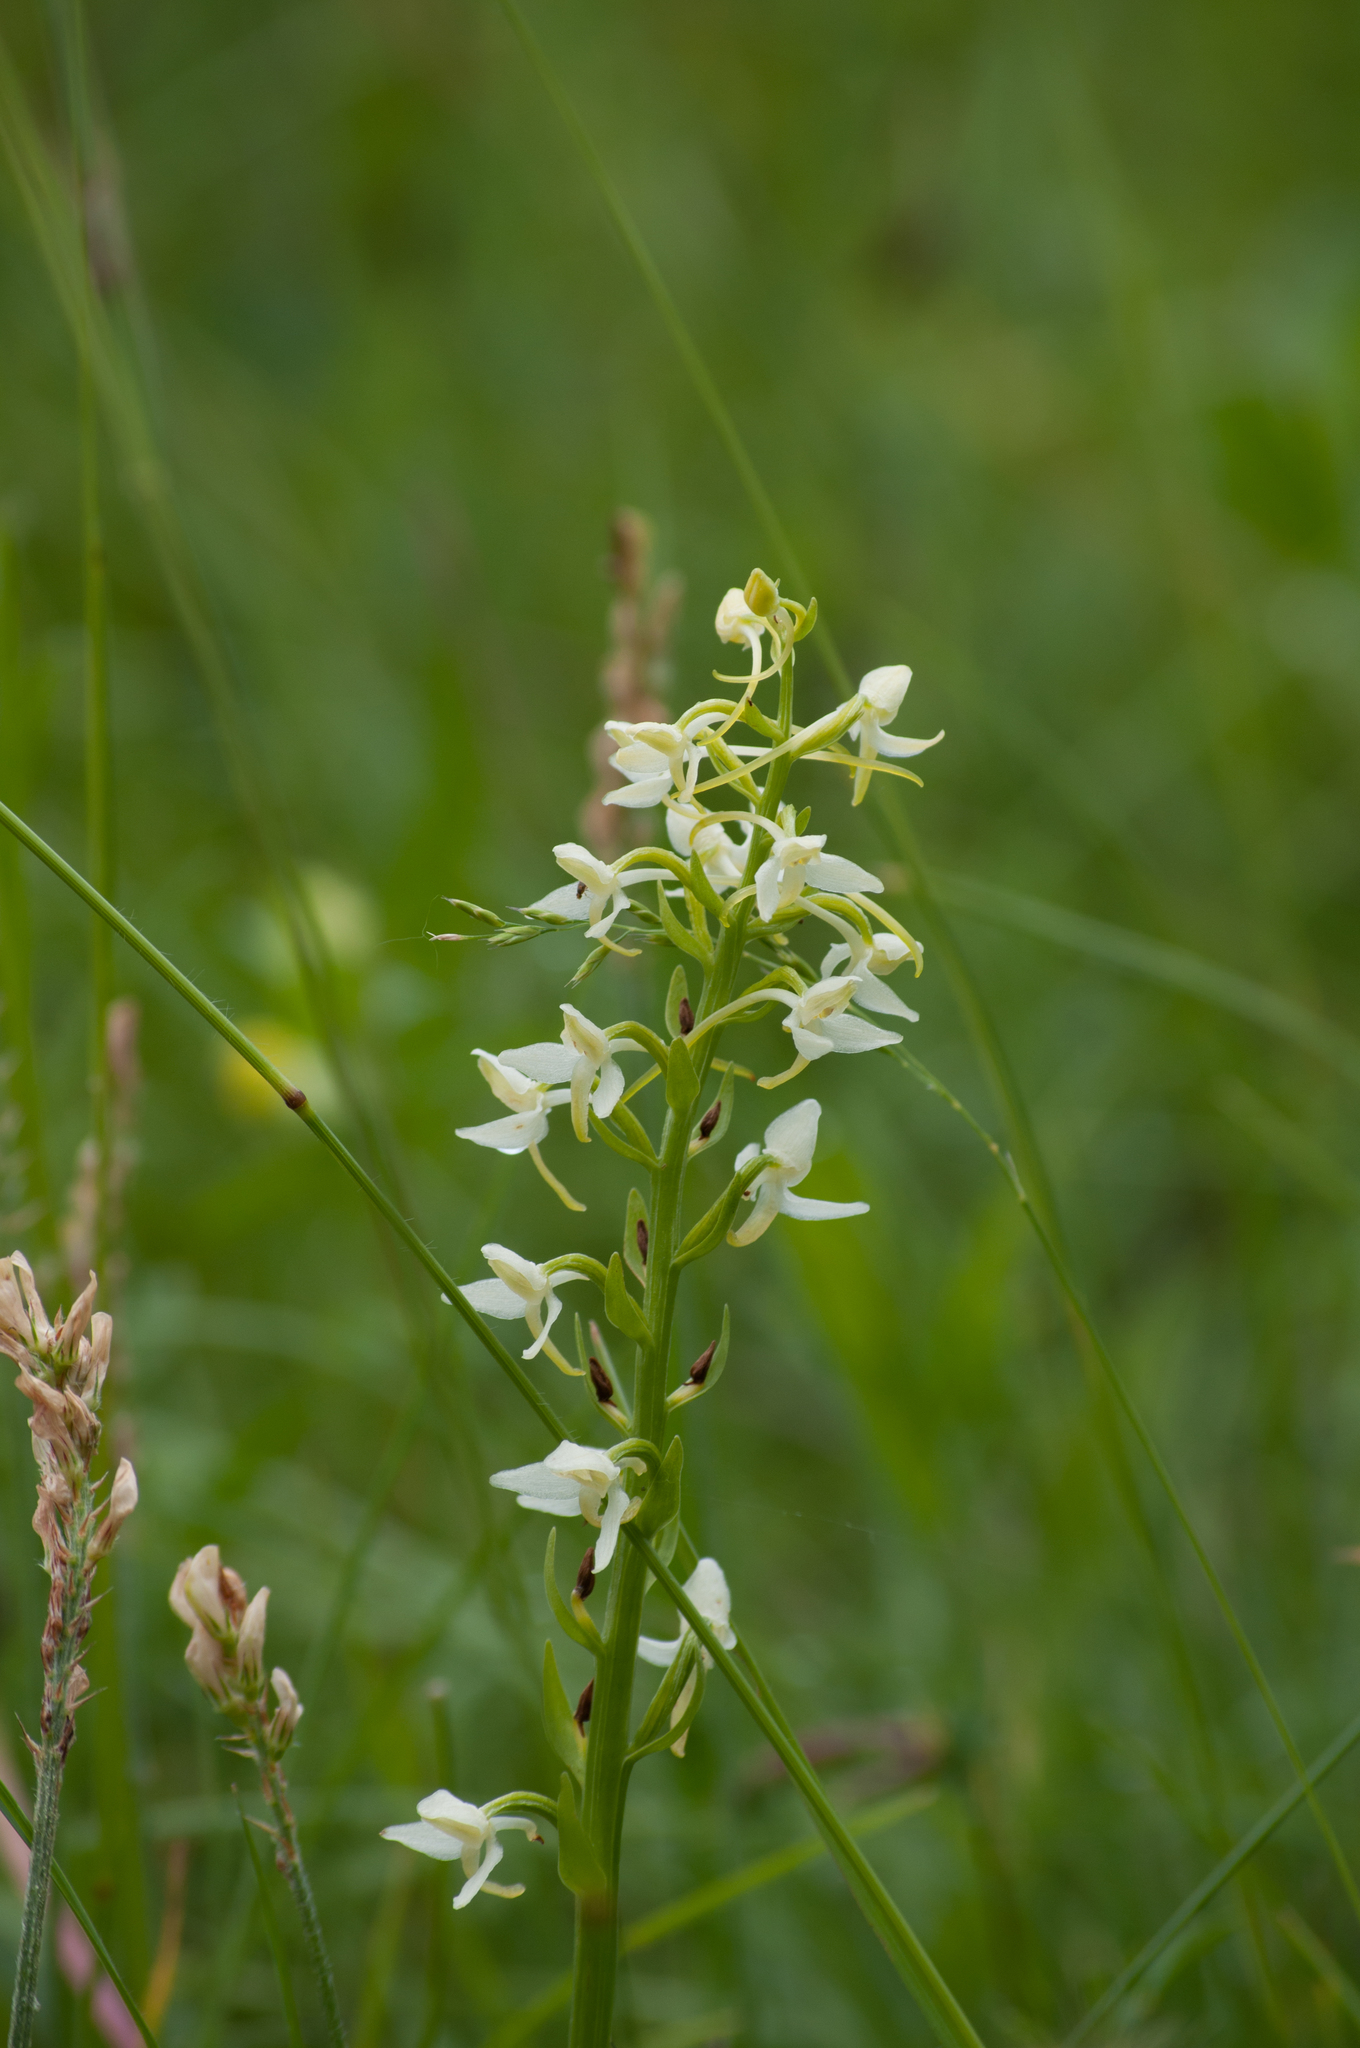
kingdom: Plantae
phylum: Tracheophyta
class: Liliopsida
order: Asparagales
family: Orchidaceae
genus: Platanthera
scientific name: Platanthera bifolia
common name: Lesser butterfly-orchid
